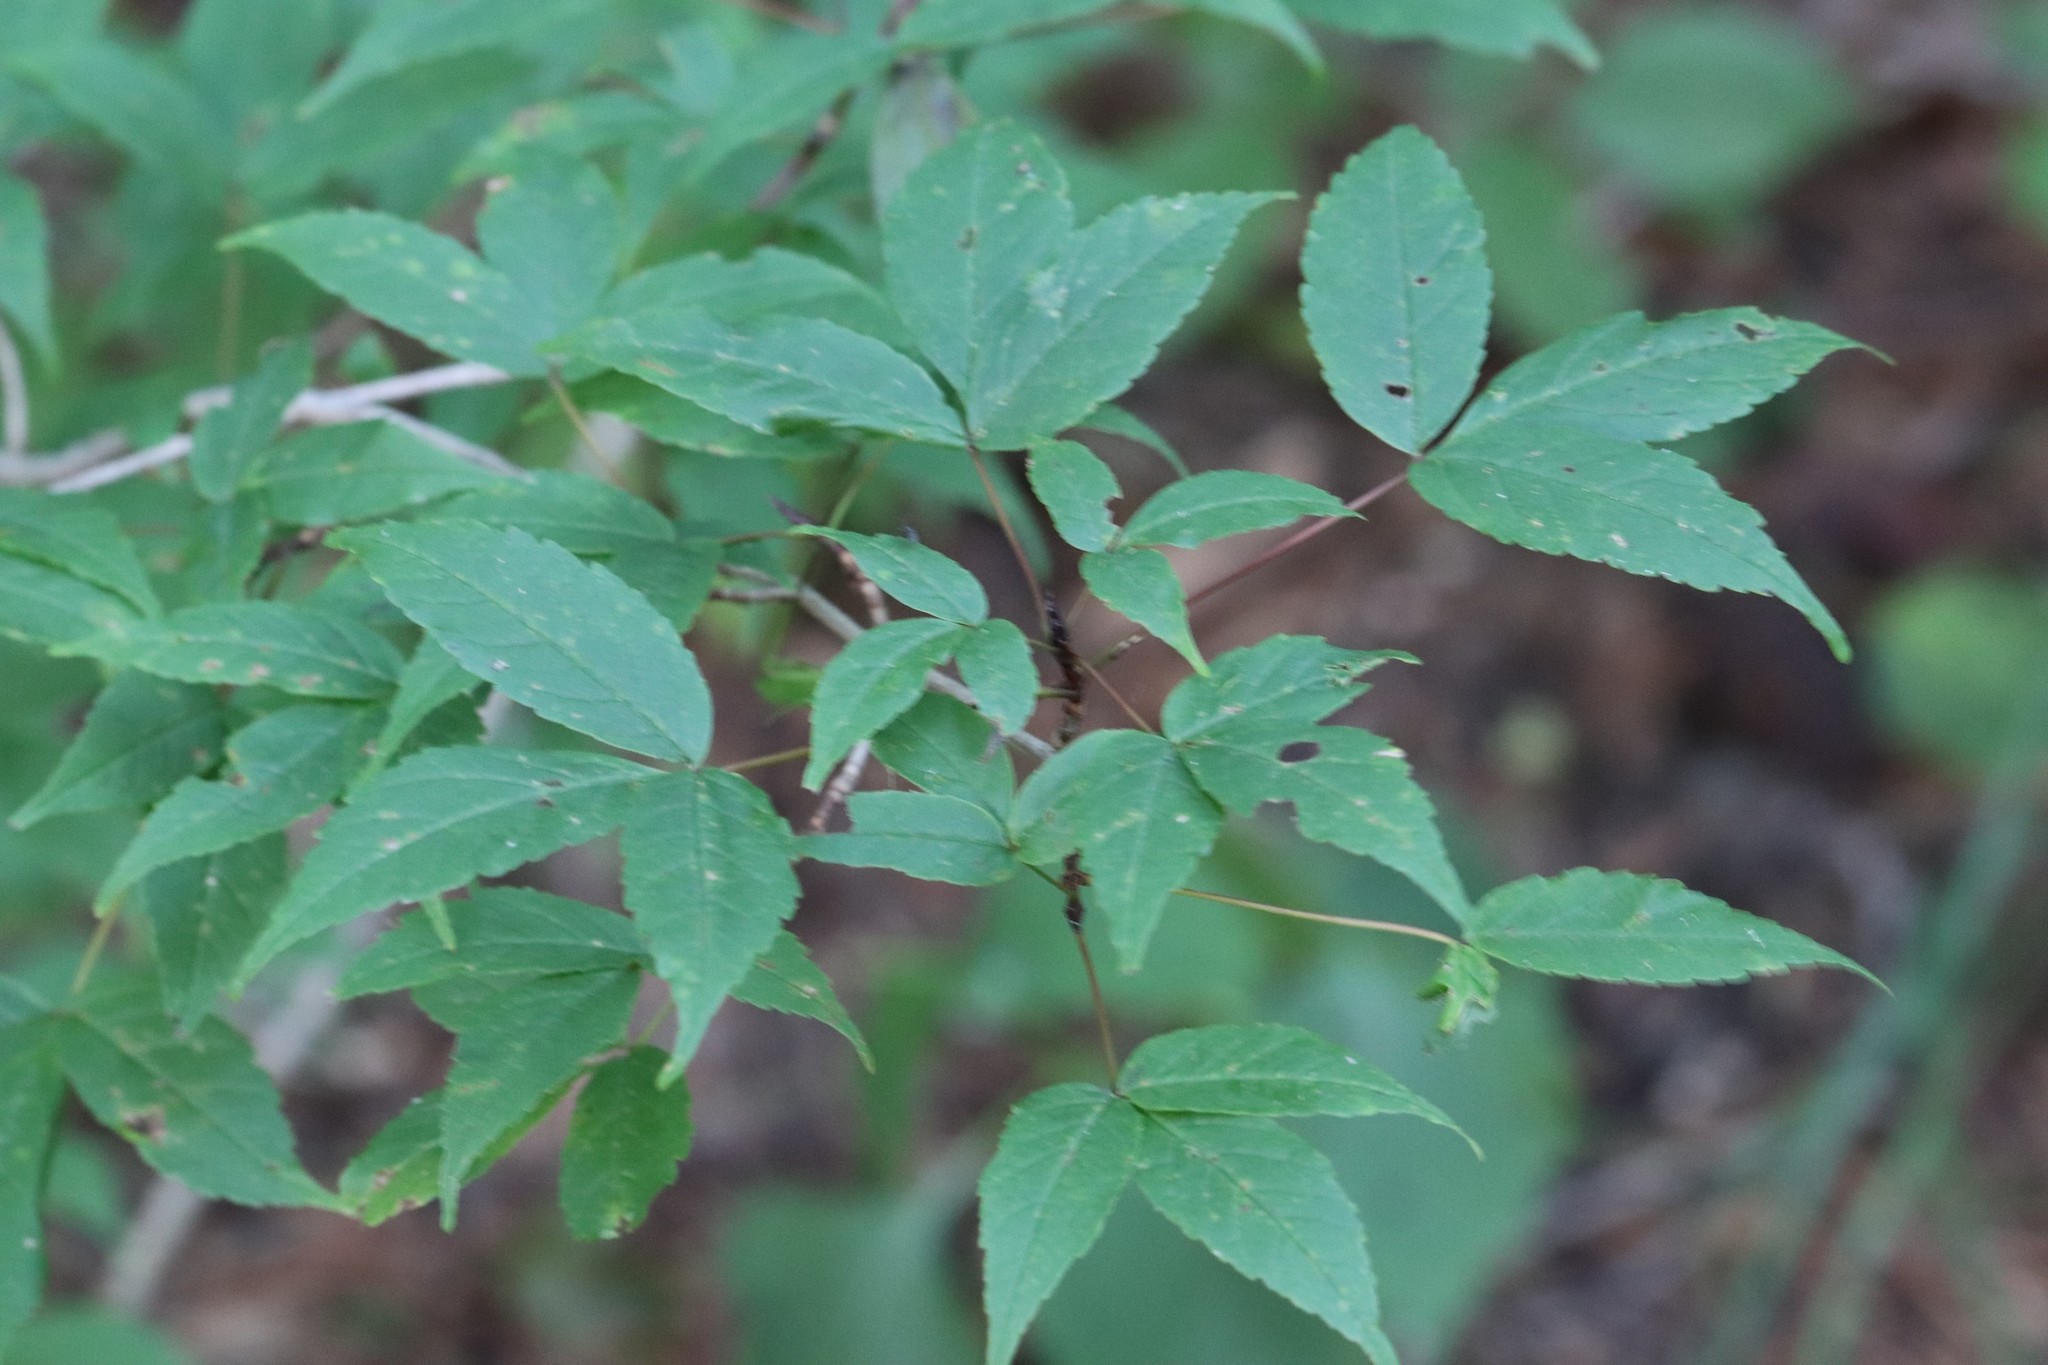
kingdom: Plantae
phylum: Tracheophyta
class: Magnoliopsida
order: Sapindales
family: Sapindaceae
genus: Acer
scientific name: Acer mandshuricum
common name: Manchurian maple
